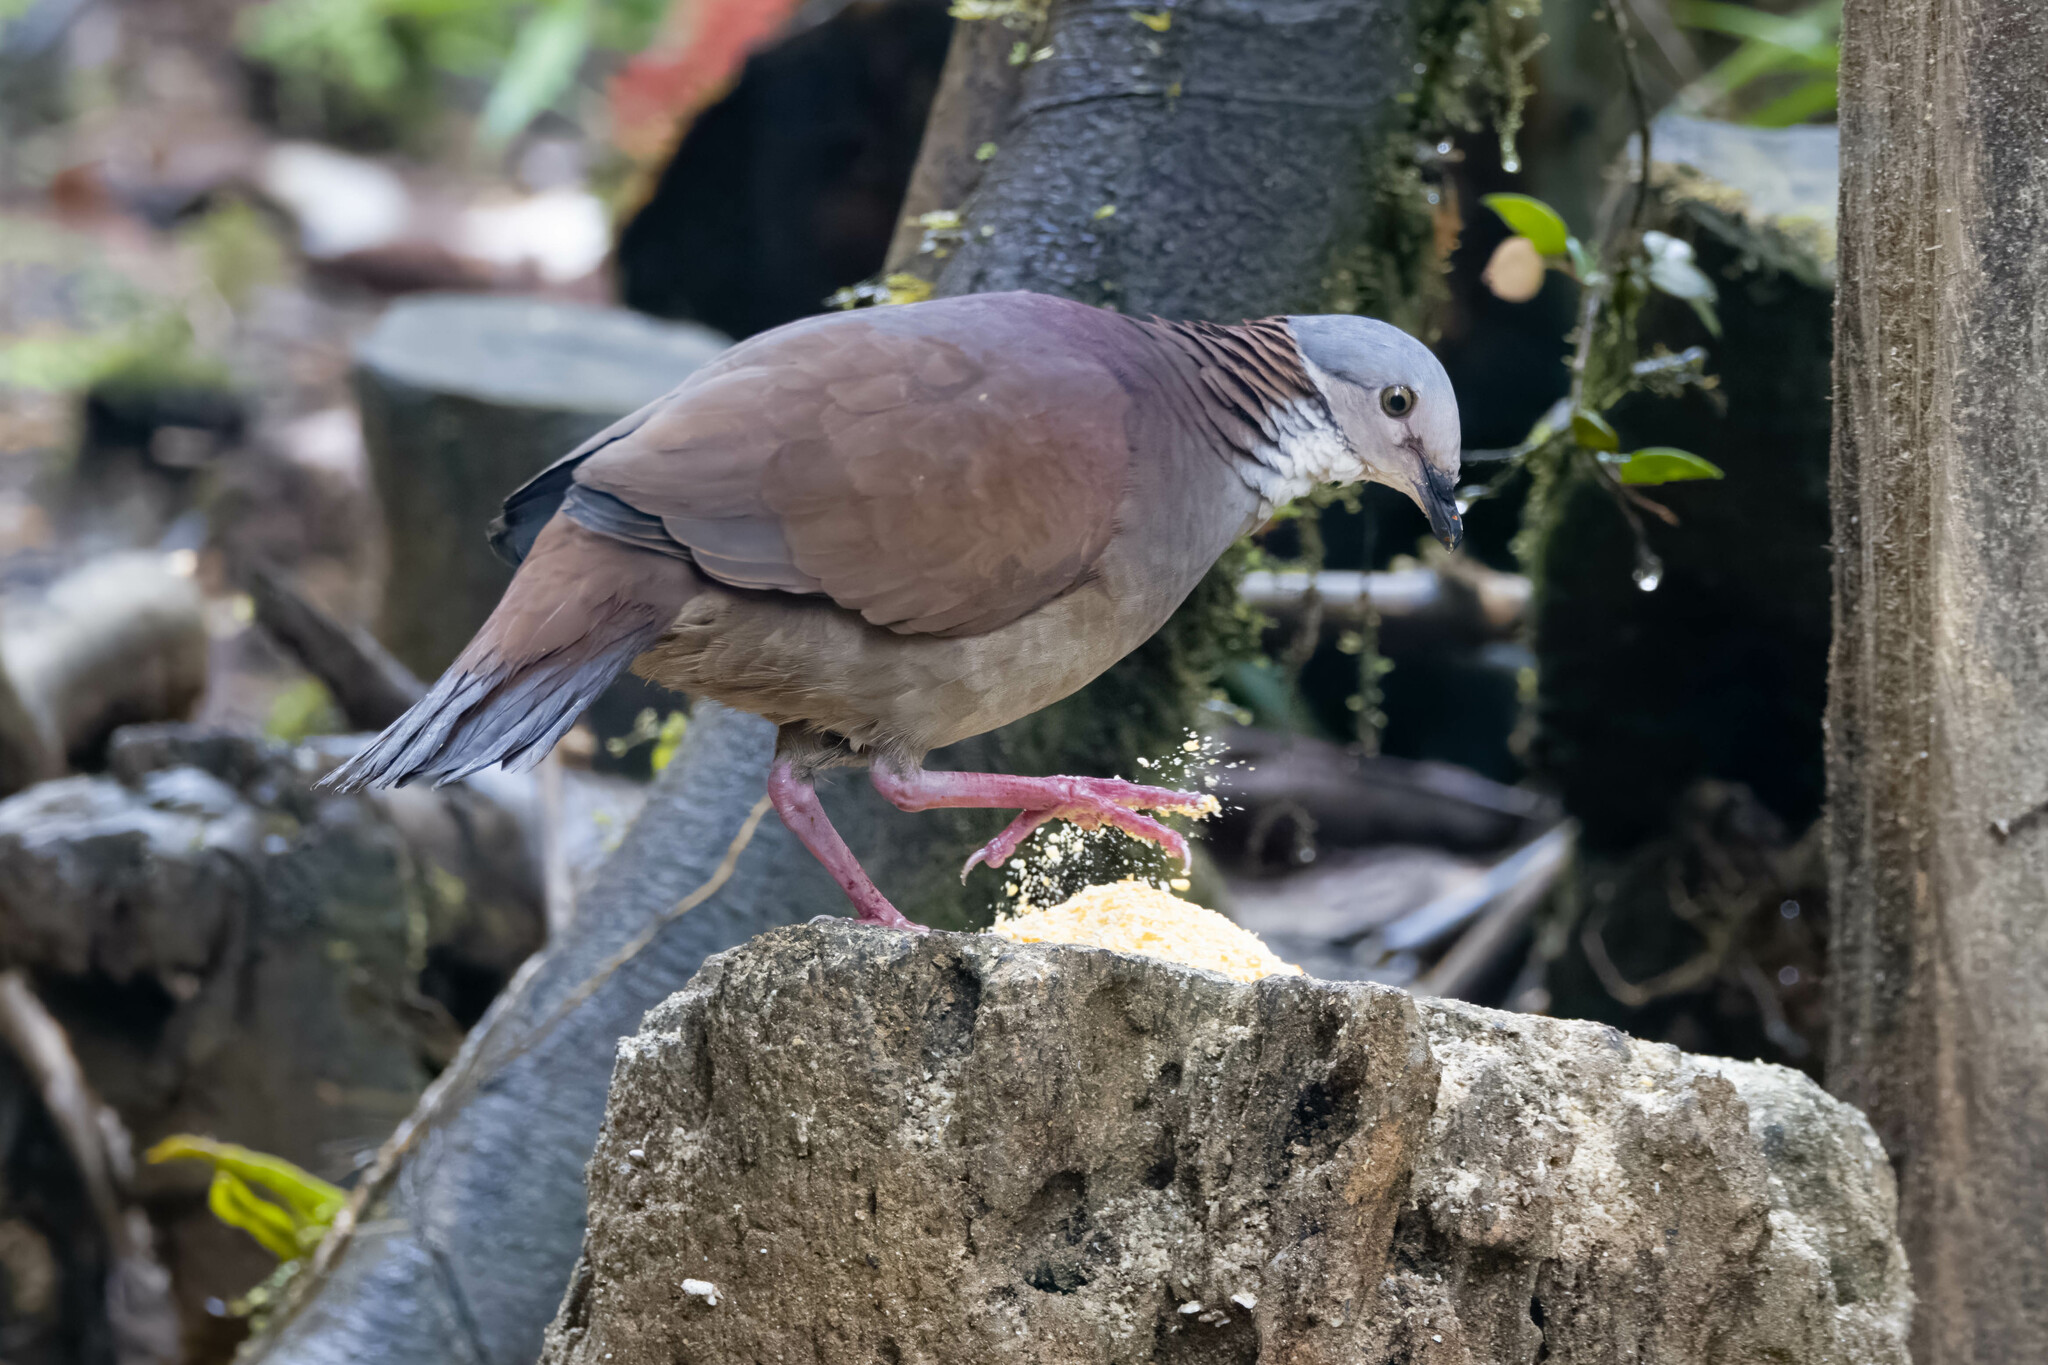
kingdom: Animalia
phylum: Chordata
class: Aves
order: Columbiformes
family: Columbidae
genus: Zentrygon
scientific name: Zentrygon frenata
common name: White-throated quail-dove
